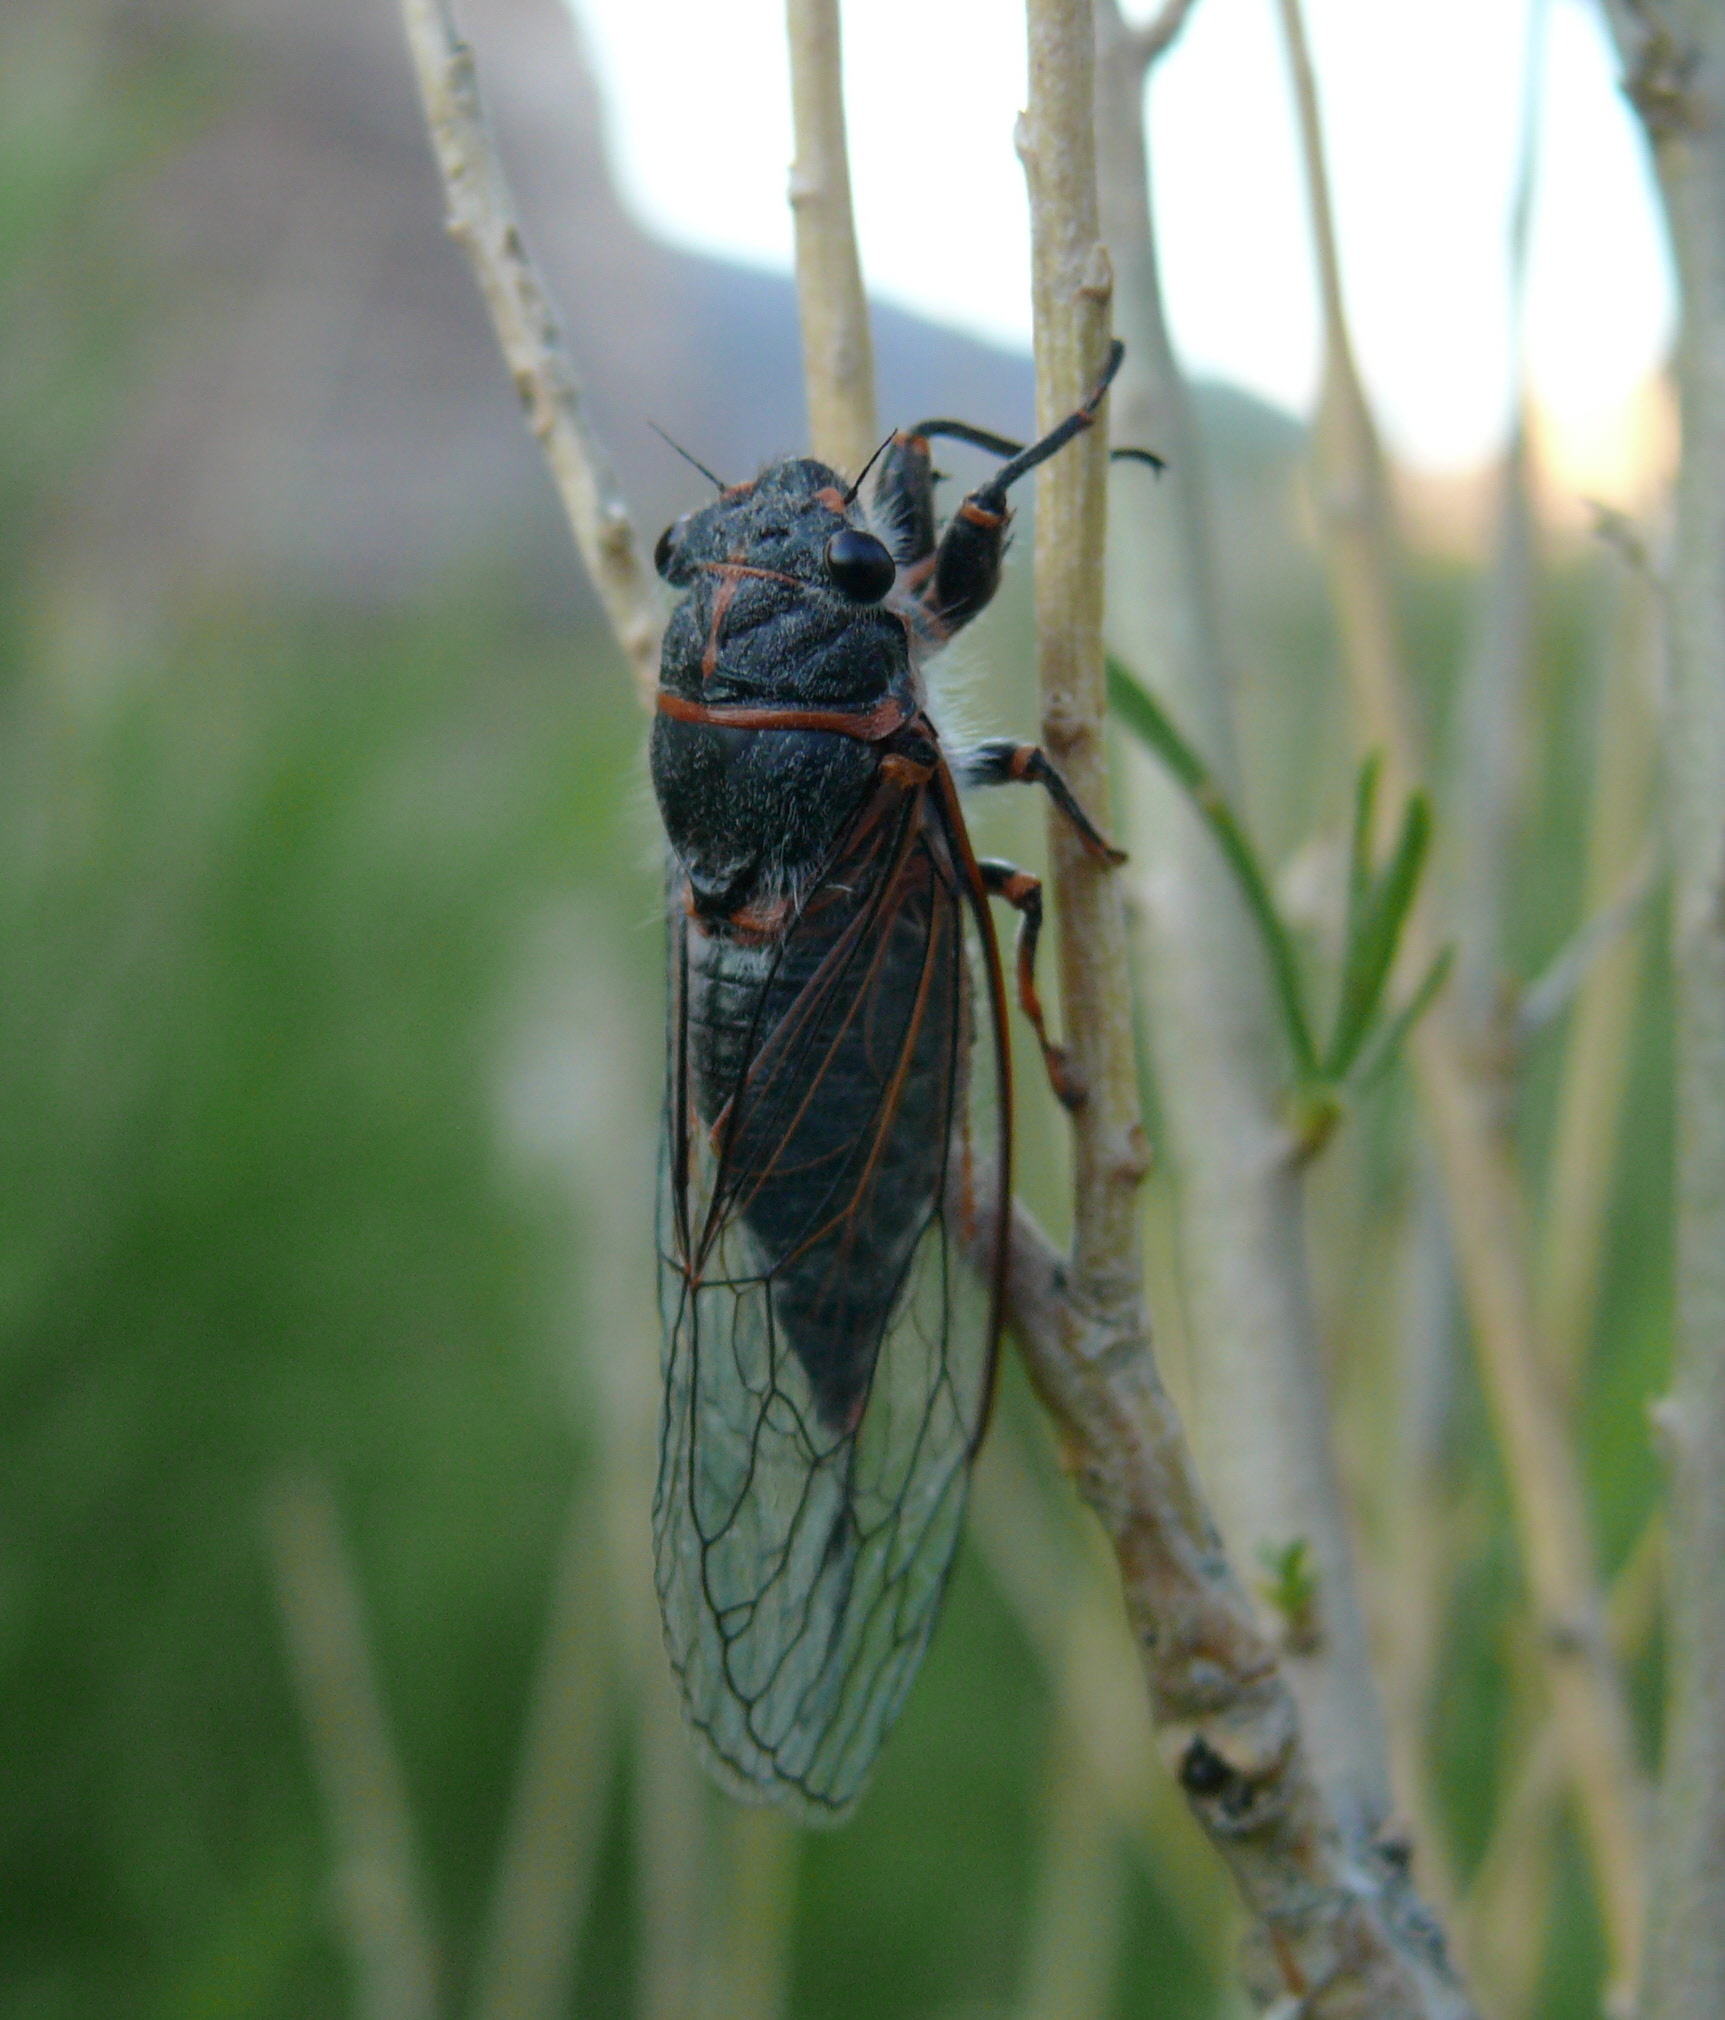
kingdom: Animalia
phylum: Arthropoda
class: Insecta
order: Hemiptera
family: Cicadidae
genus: Platypedia
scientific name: Platypedia putnami
